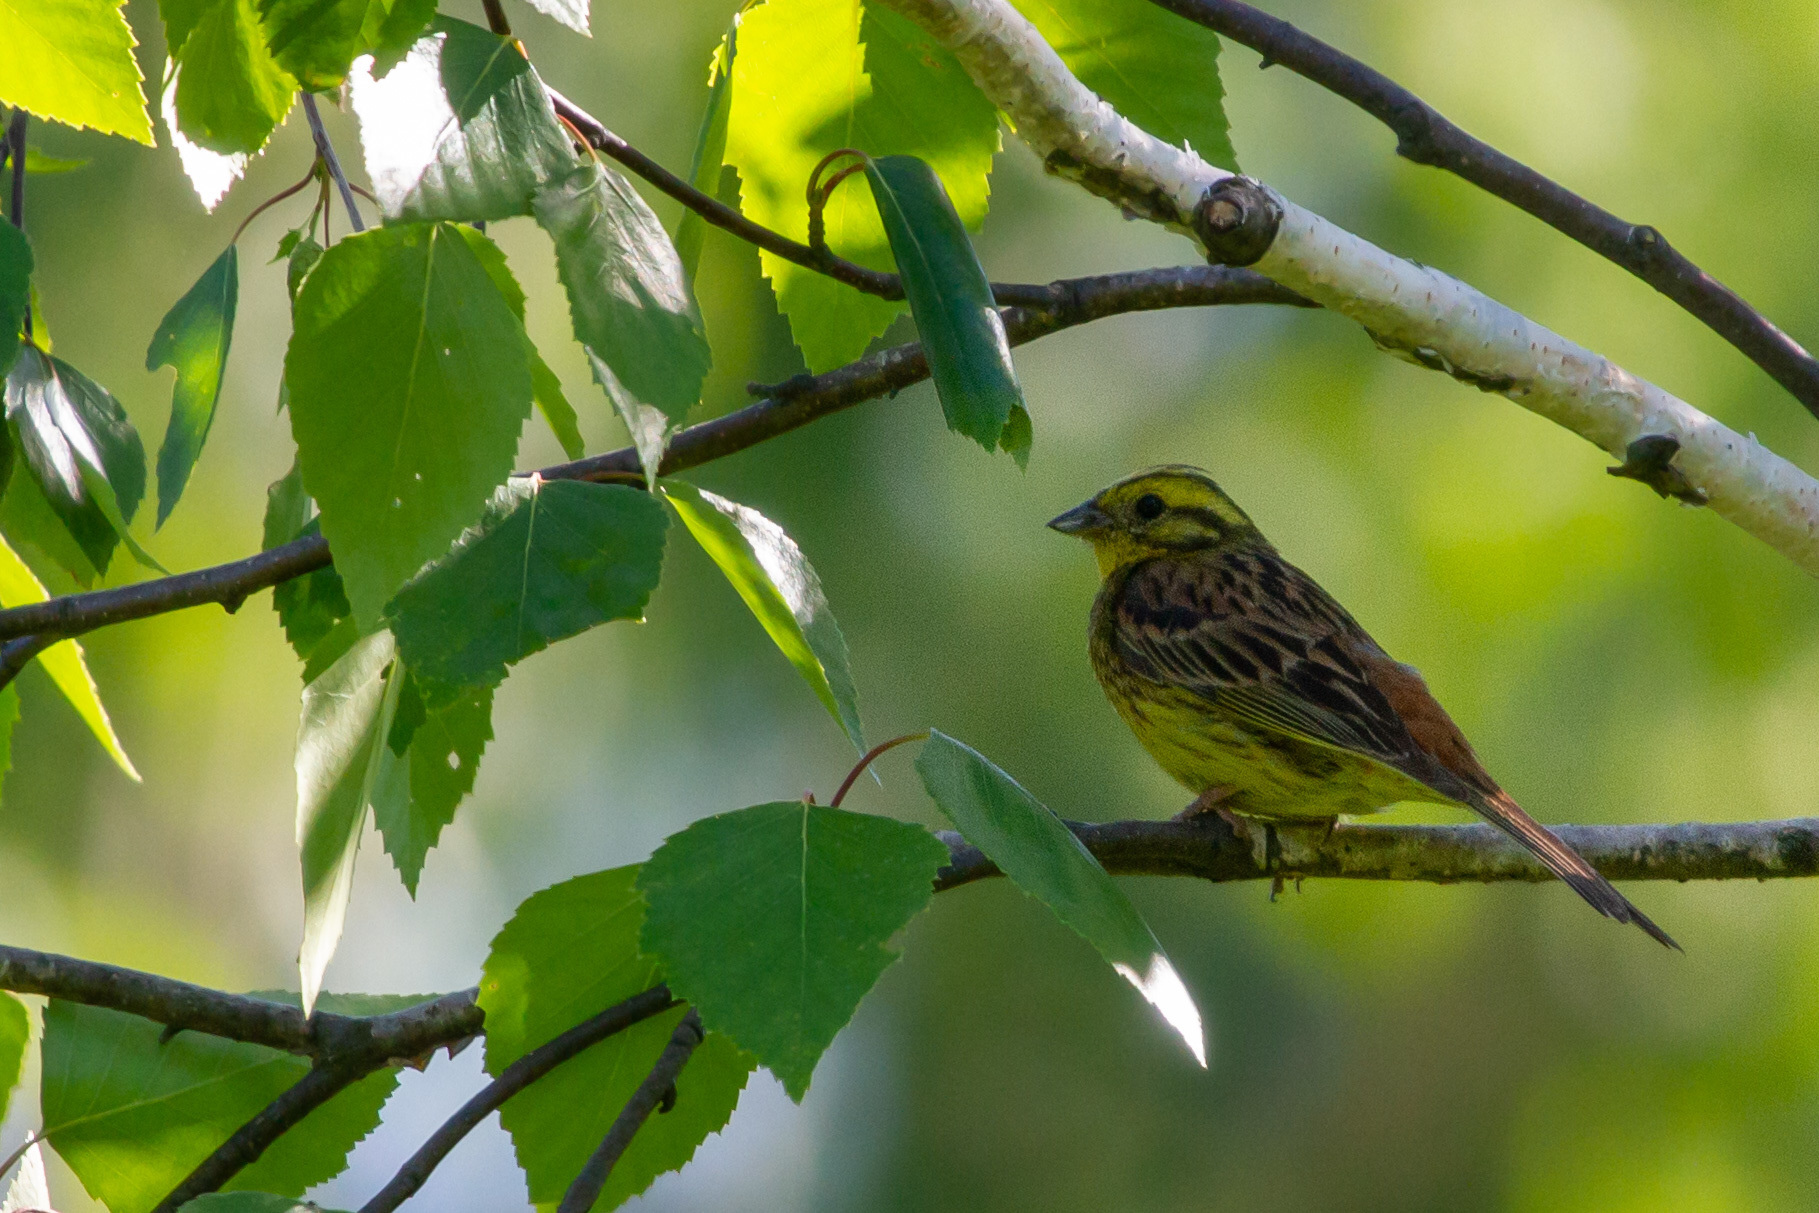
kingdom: Animalia
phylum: Chordata
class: Aves
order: Passeriformes
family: Emberizidae
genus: Emberiza
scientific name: Emberiza citrinella
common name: Yellowhammer
